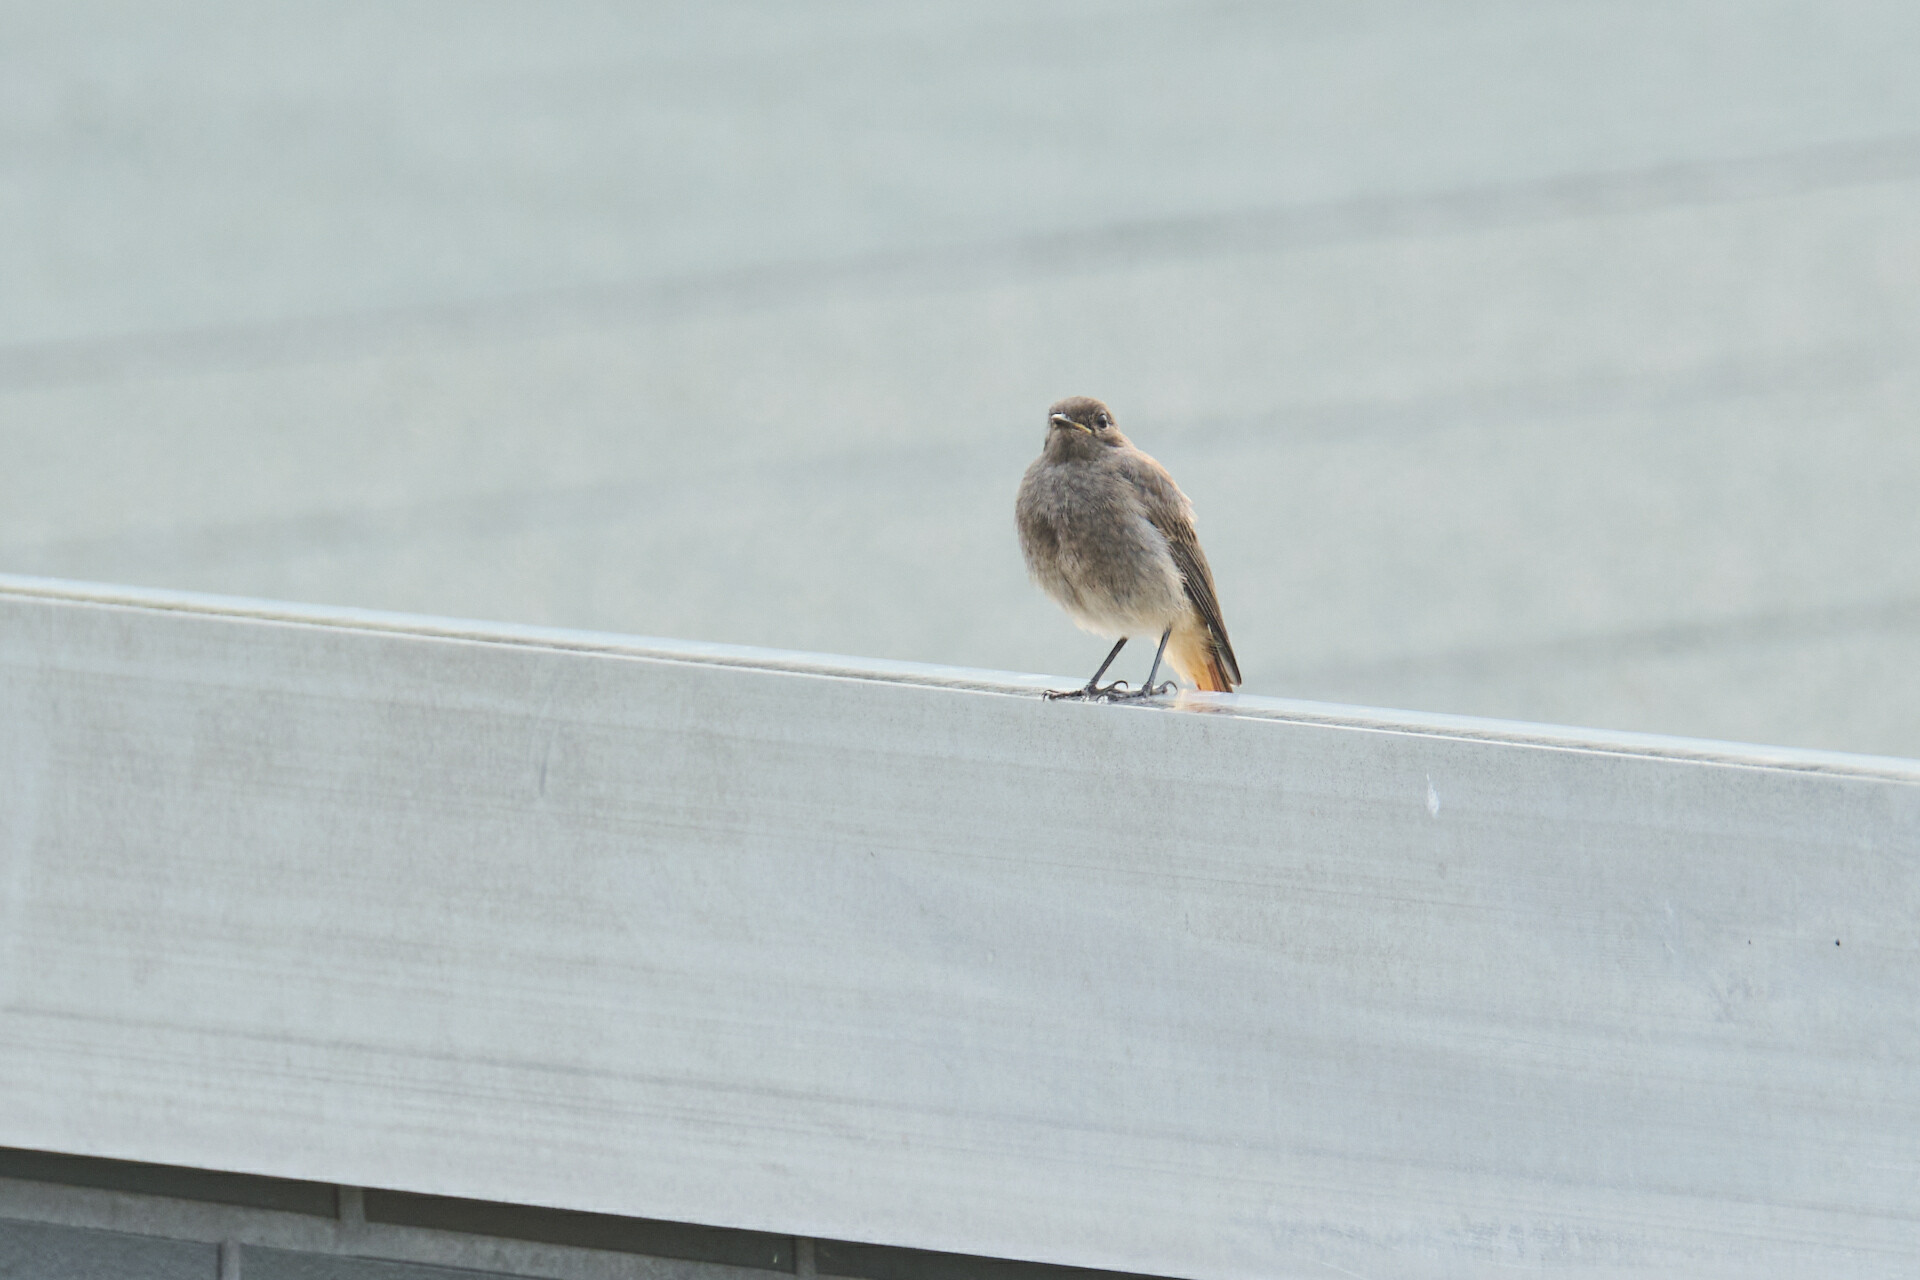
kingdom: Animalia
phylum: Chordata
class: Aves
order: Passeriformes
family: Muscicapidae
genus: Phoenicurus
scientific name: Phoenicurus ochruros
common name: Black redstart
